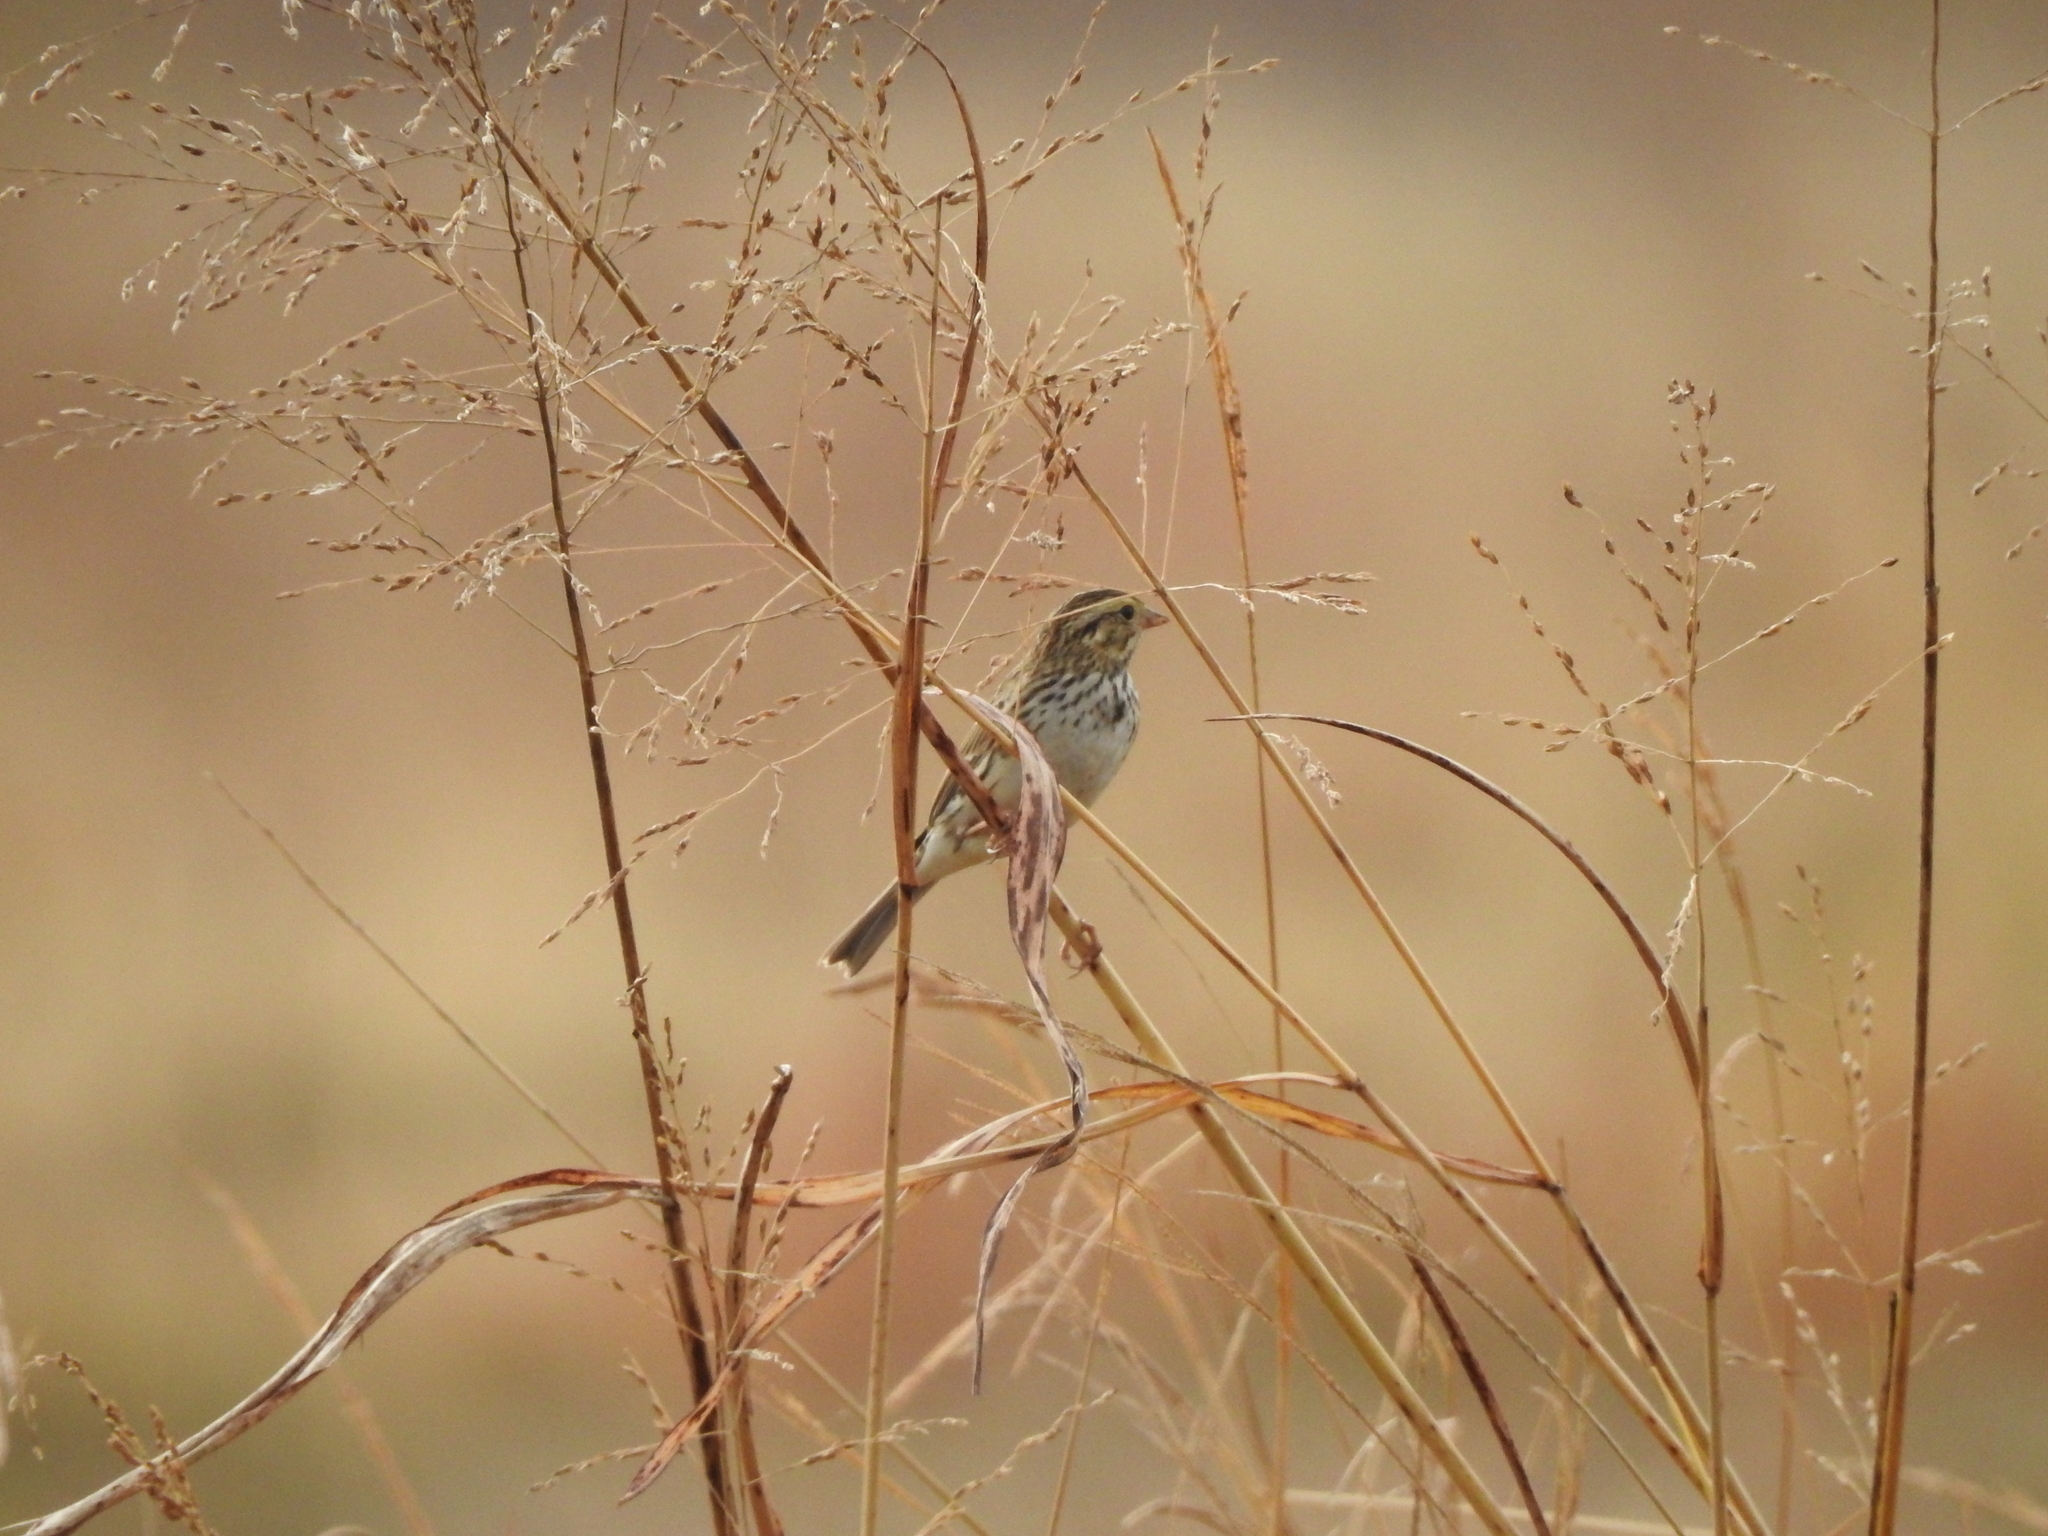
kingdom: Animalia
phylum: Chordata
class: Aves
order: Passeriformes
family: Passerellidae
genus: Passerculus
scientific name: Passerculus sandwichensis
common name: Savannah sparrow
